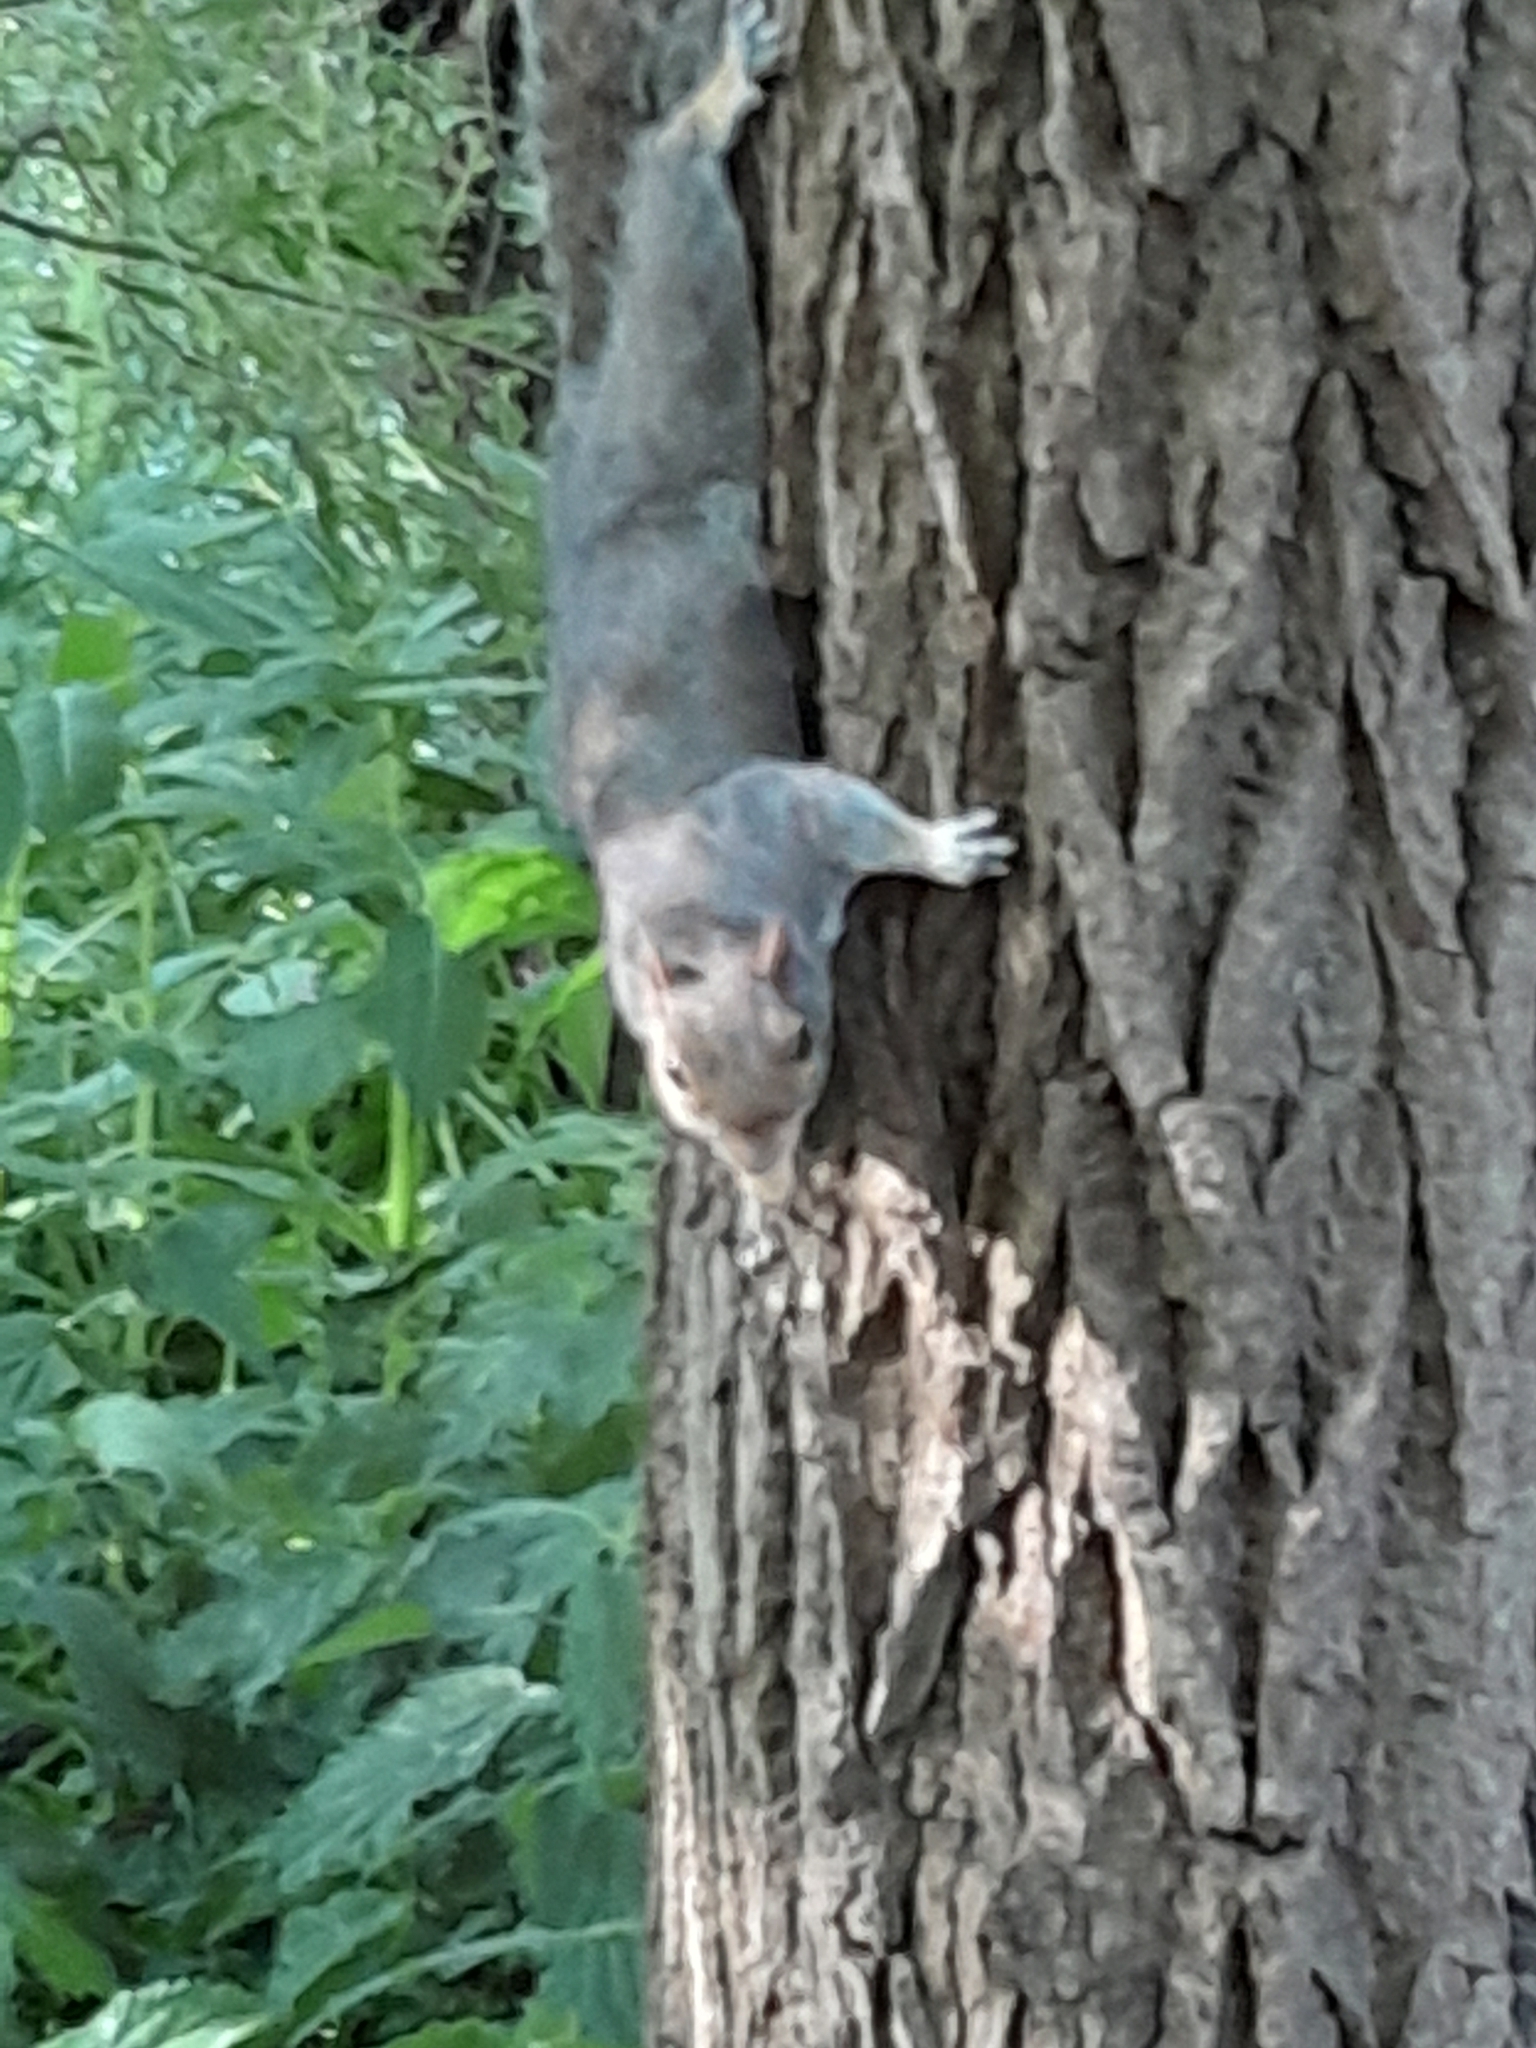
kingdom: Animalia
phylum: Chordata
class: Mammalia
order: Rodentia
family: Sciuridae
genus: Sciurus
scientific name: Sciurus carolinensis
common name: Eastern gray squirrel
